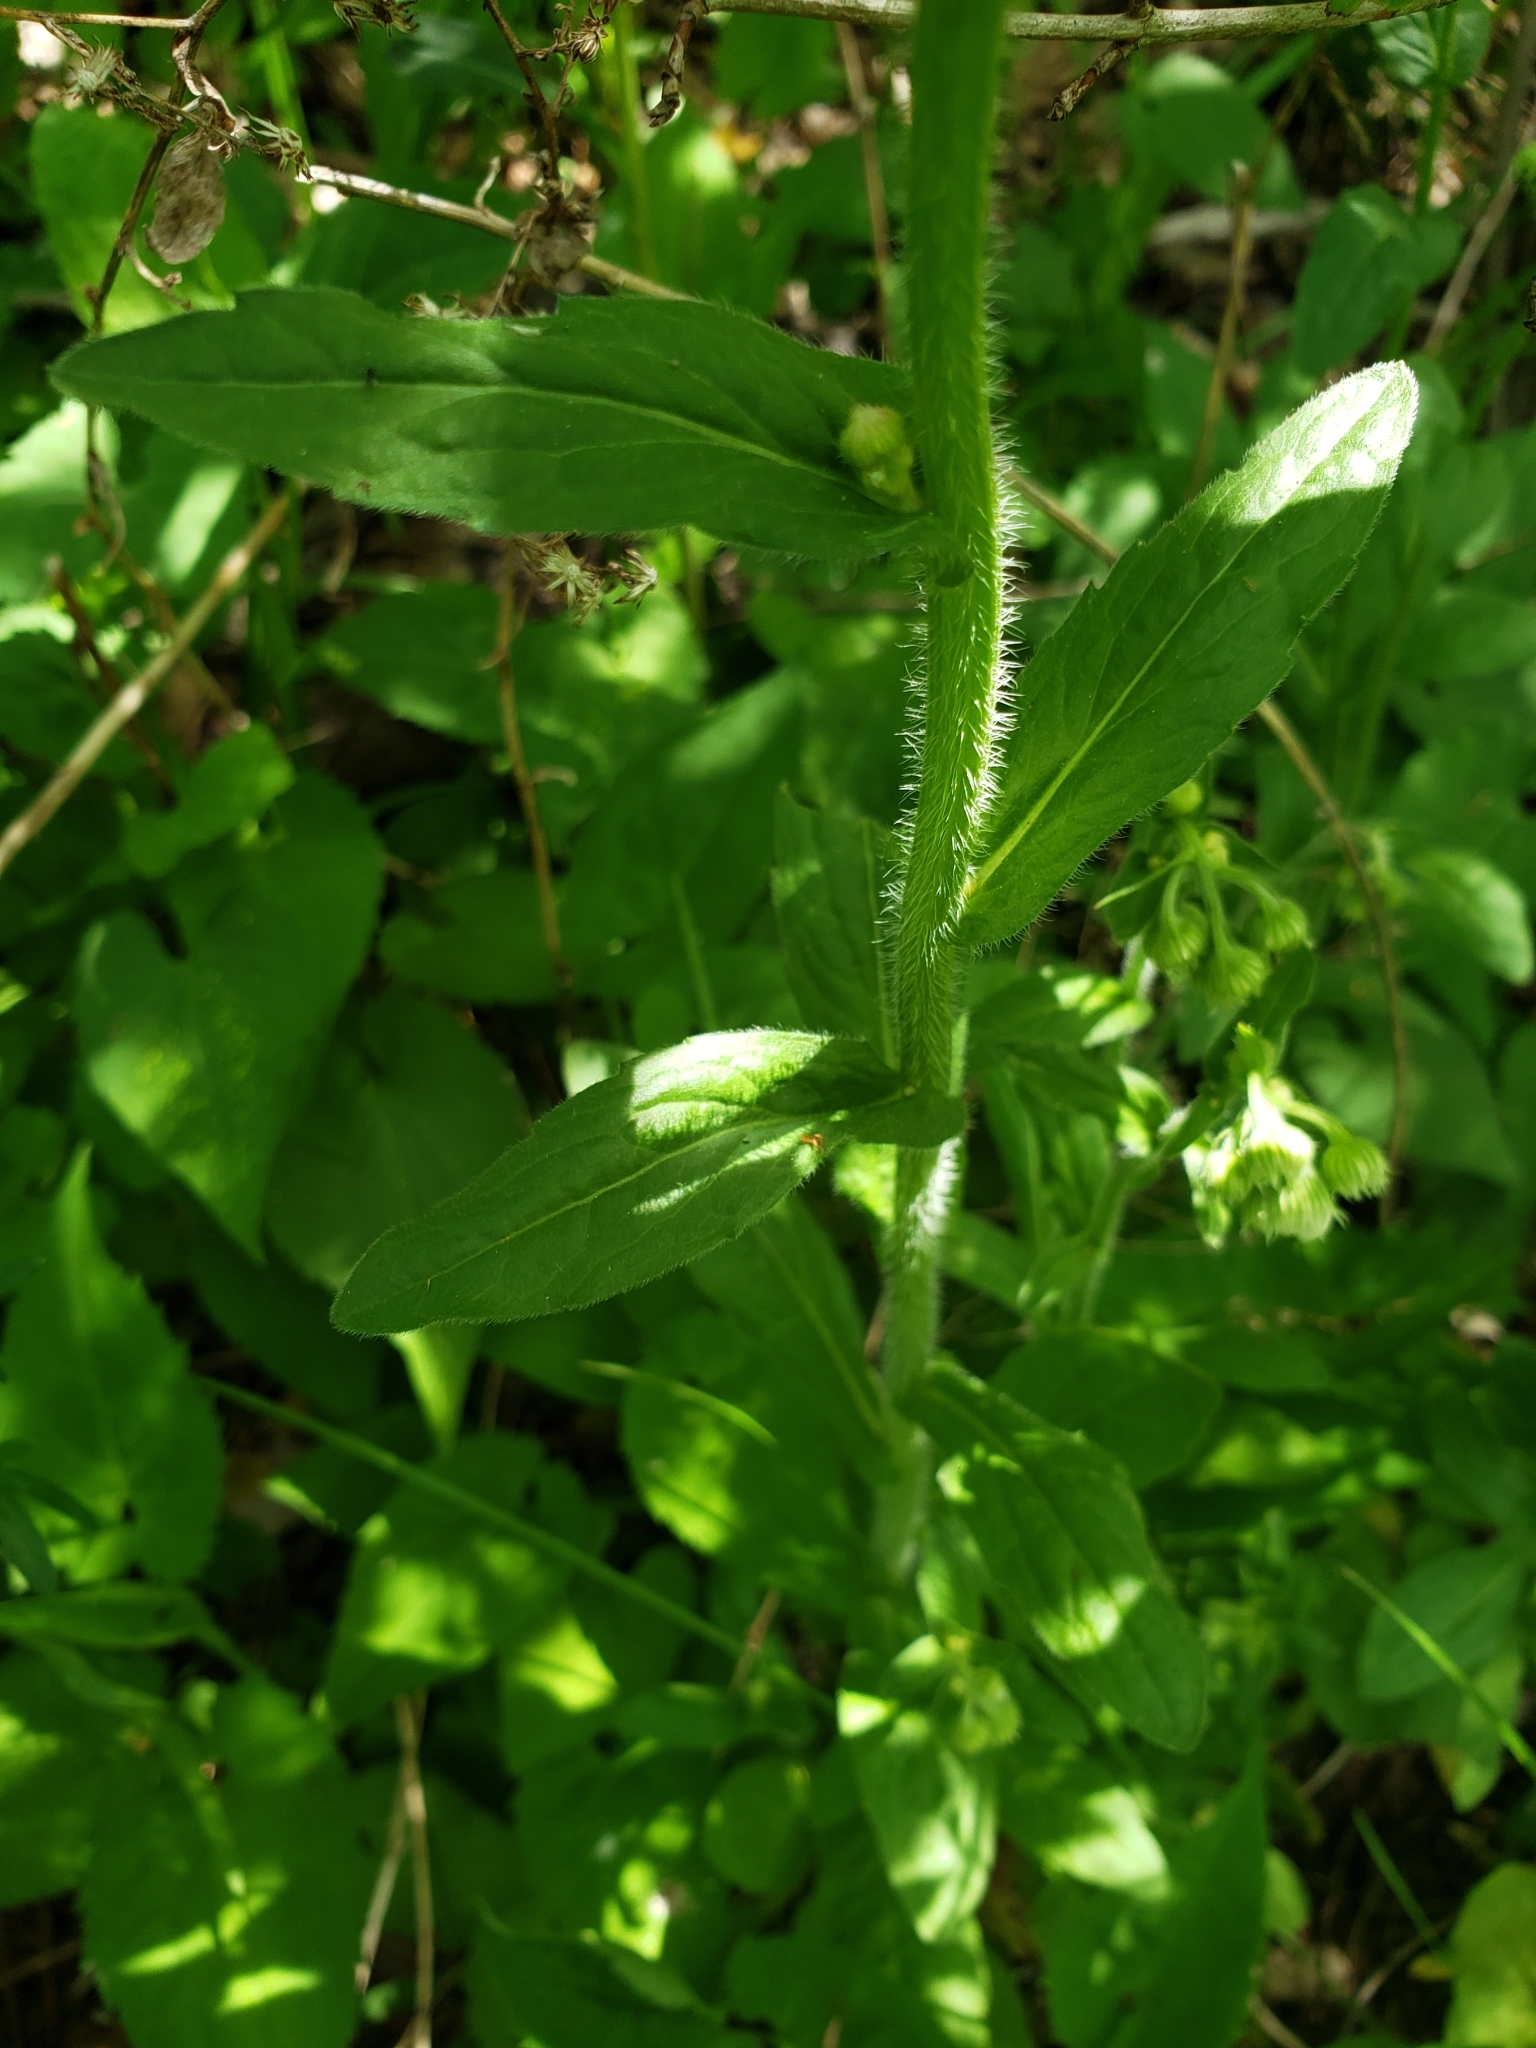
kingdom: Plantae
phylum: Tracheophyta
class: Magnoliopsida
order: Asterales
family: Asteraceae
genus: Erigeron
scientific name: Erigeron philadelphicus
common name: Robin's-plantain
